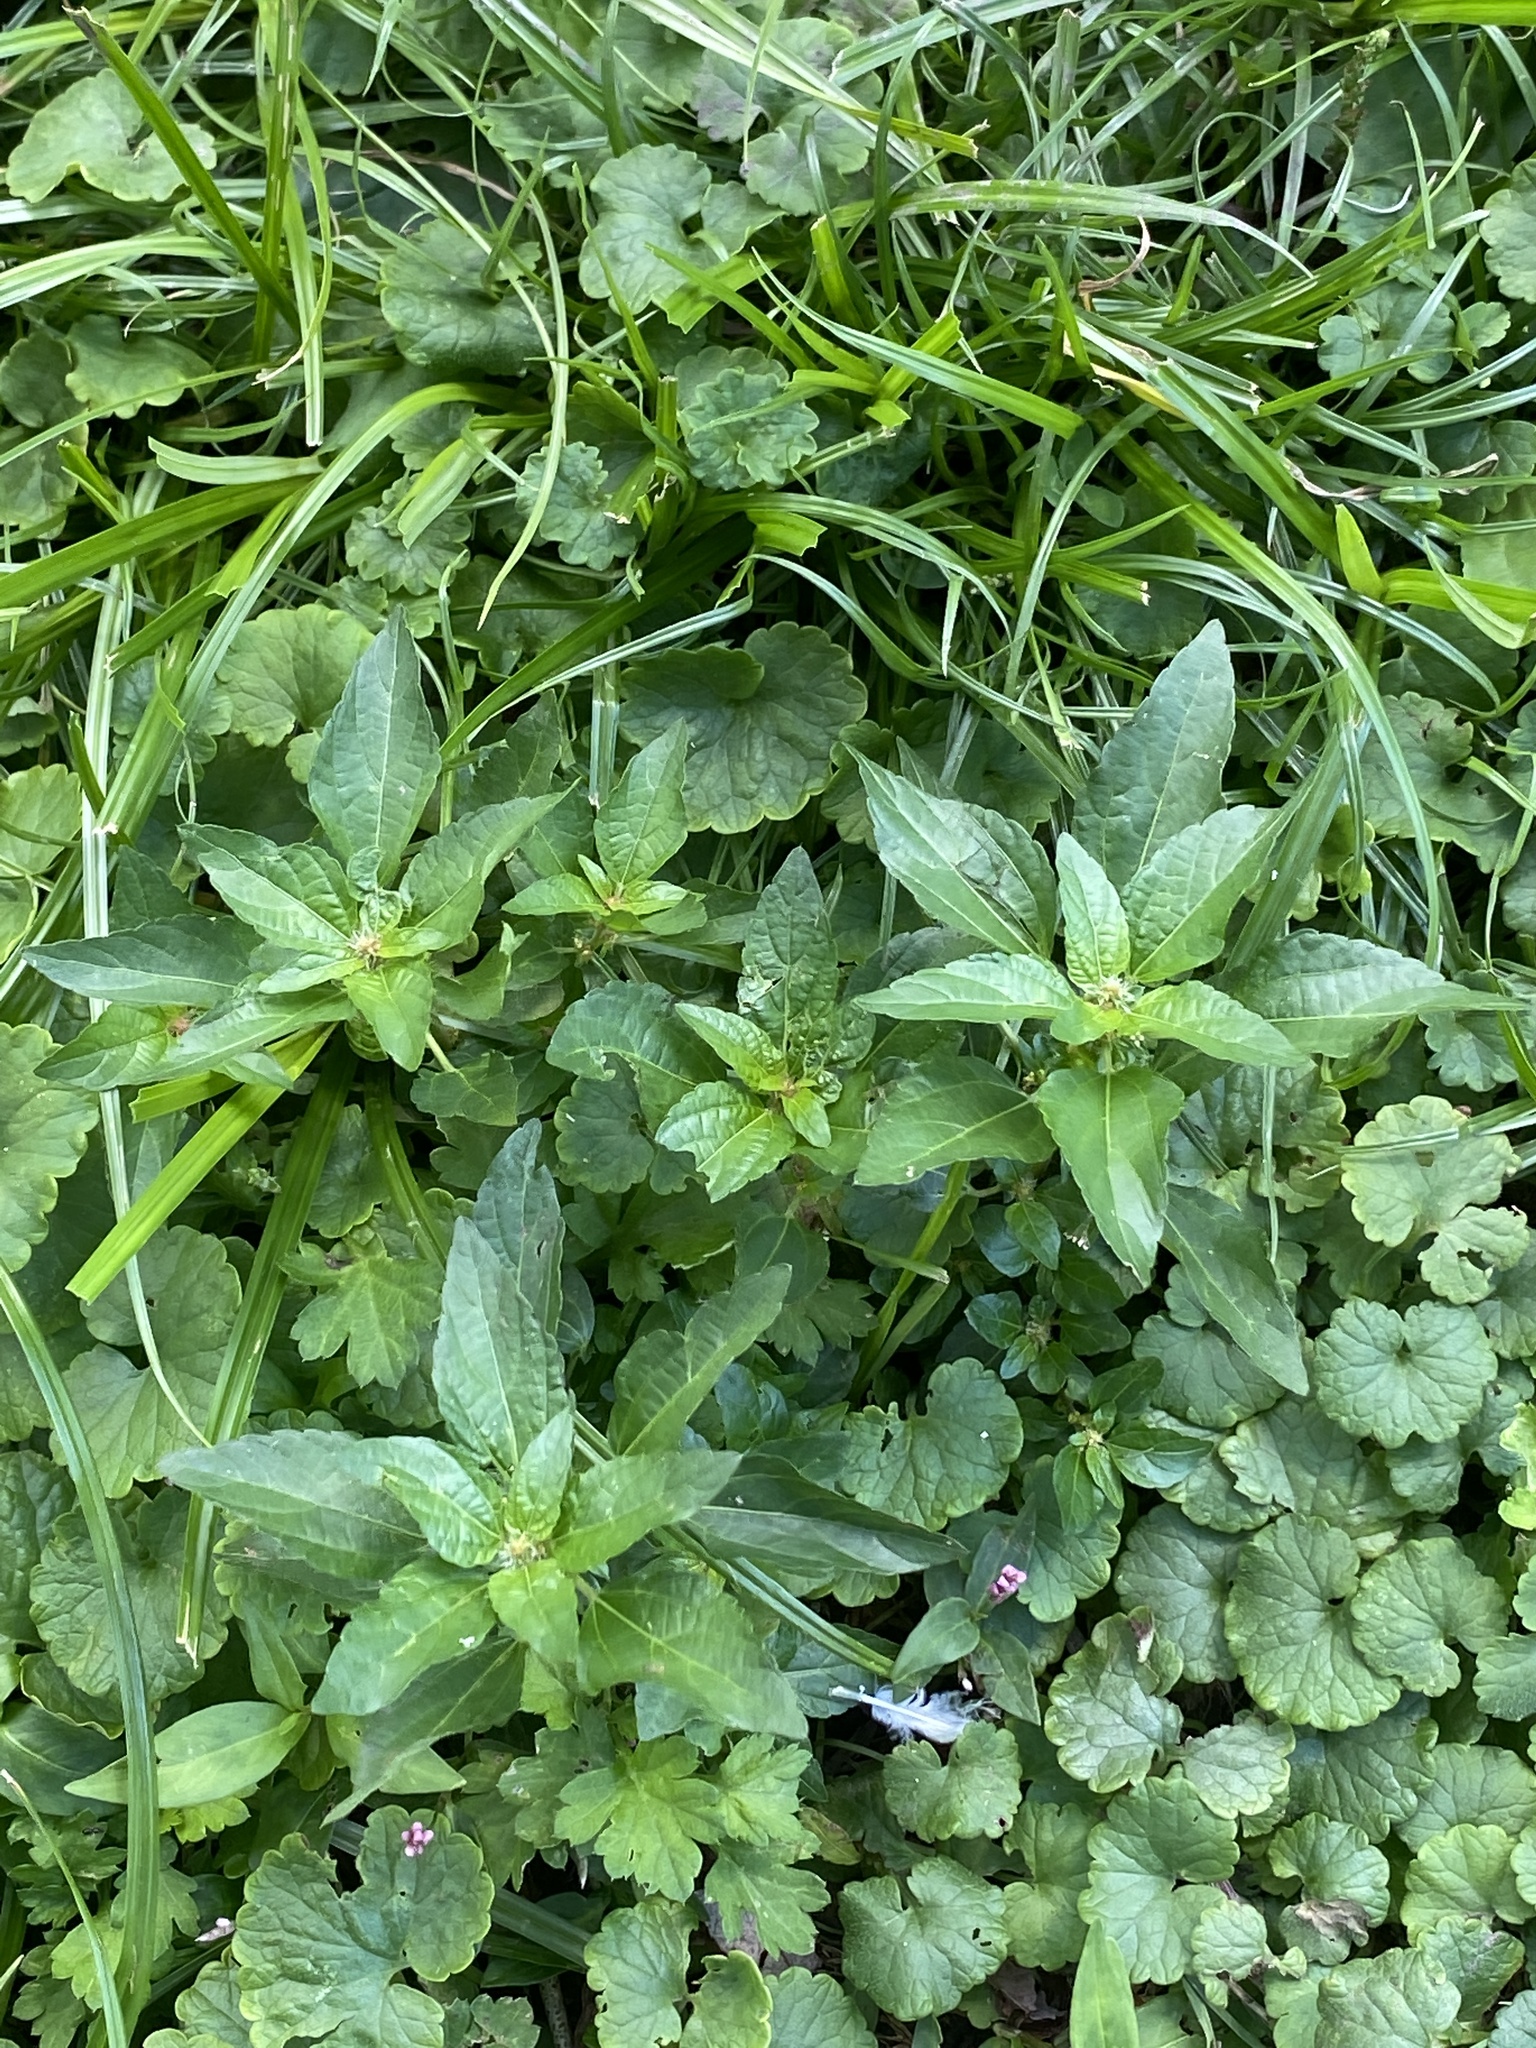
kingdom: Plantae
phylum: Tracheophyta
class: Magnoliopsida
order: Malpighiales
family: Euphorbiaceae
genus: Acalypha
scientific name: Acalypha rhomboidea
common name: Rhombic copperleaf
